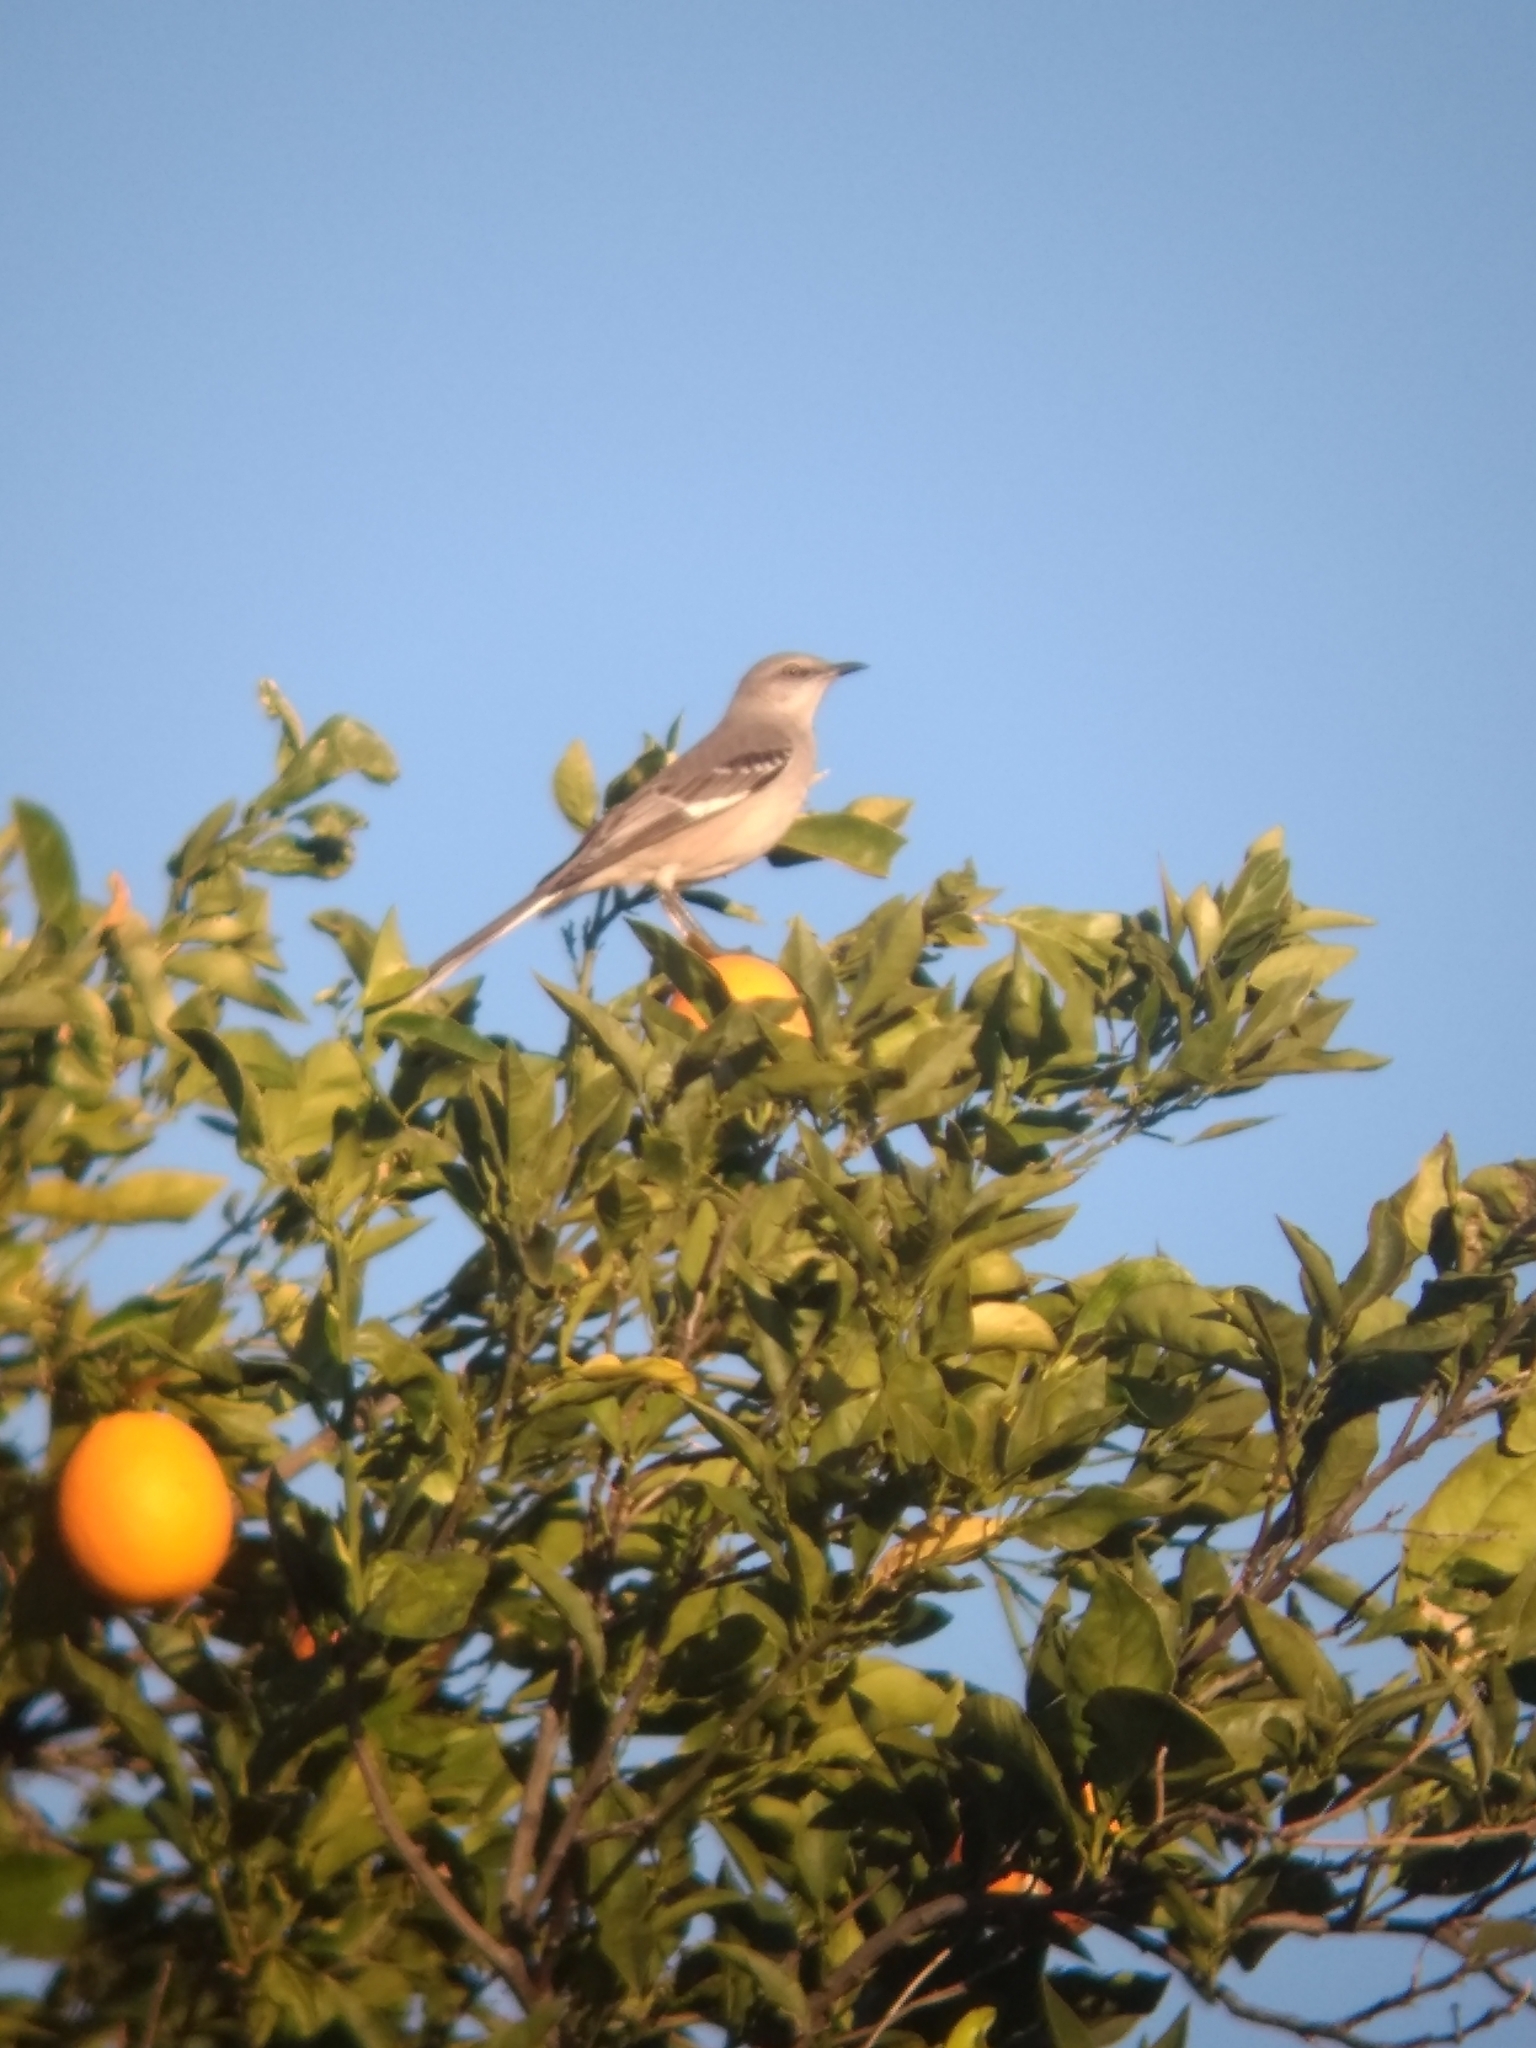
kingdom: Animalia
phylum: Chordata
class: Aves
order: Passeriformes
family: Mimidae
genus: Mimus
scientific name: Mimus polyglottos
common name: Northern mockingbird
